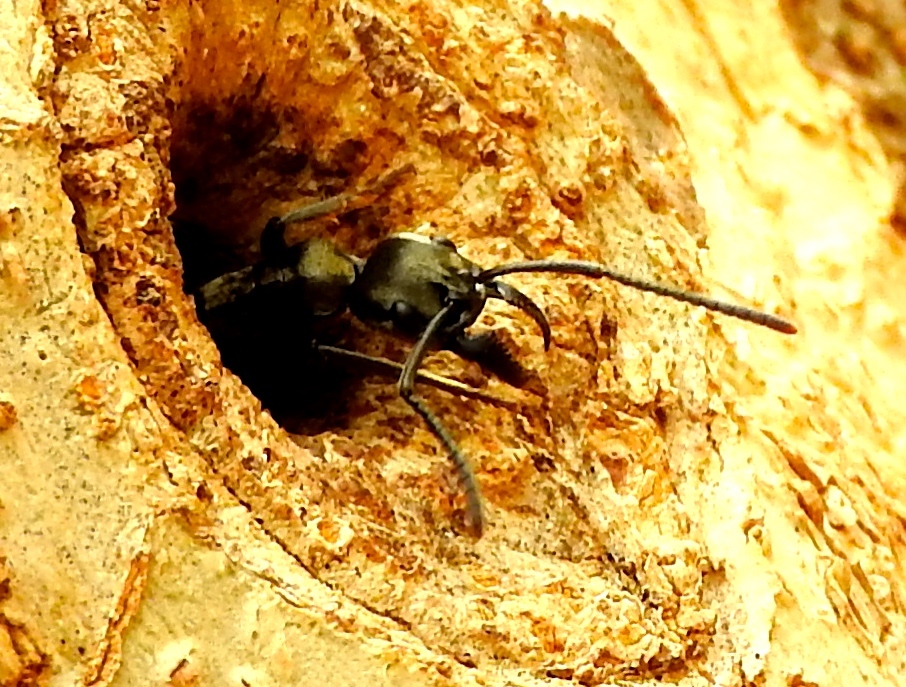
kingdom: Animalia
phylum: Arthropoda
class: Insecta
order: Hymenoptera
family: Formicidae
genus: Pachycondyla
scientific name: Pachycondyla villosa
